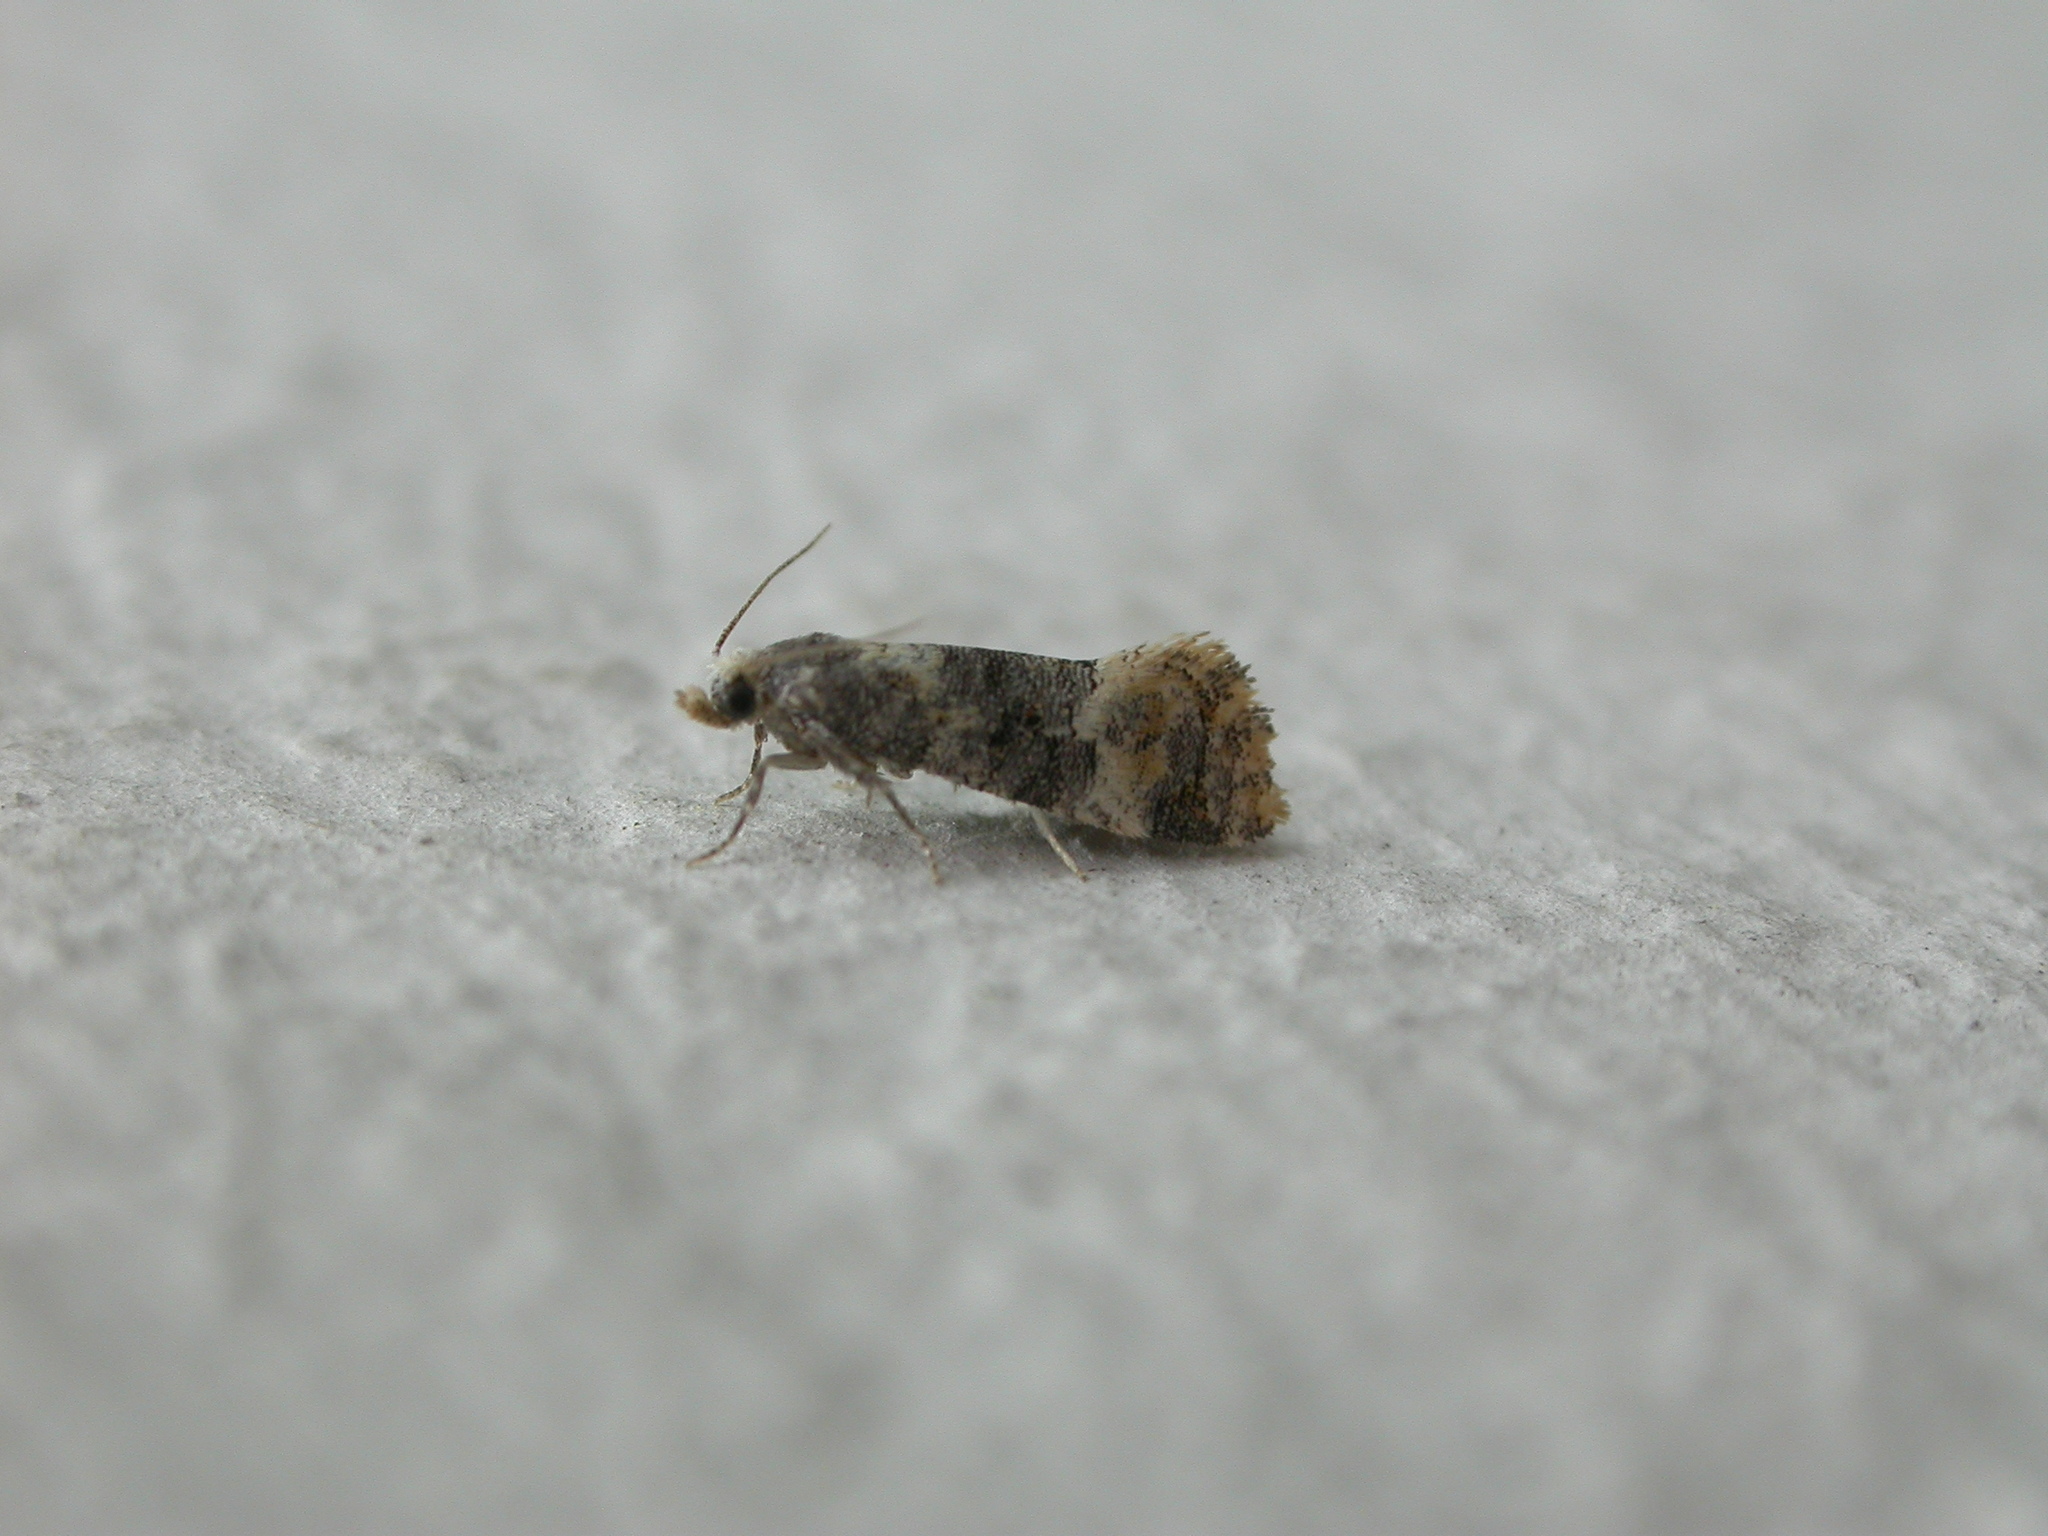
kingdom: Animalia
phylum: Arthropoda
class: Insecta
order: Lepidoptera
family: Tortricidae
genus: Thyraylia
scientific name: Thyraylia nana
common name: Birch conch
